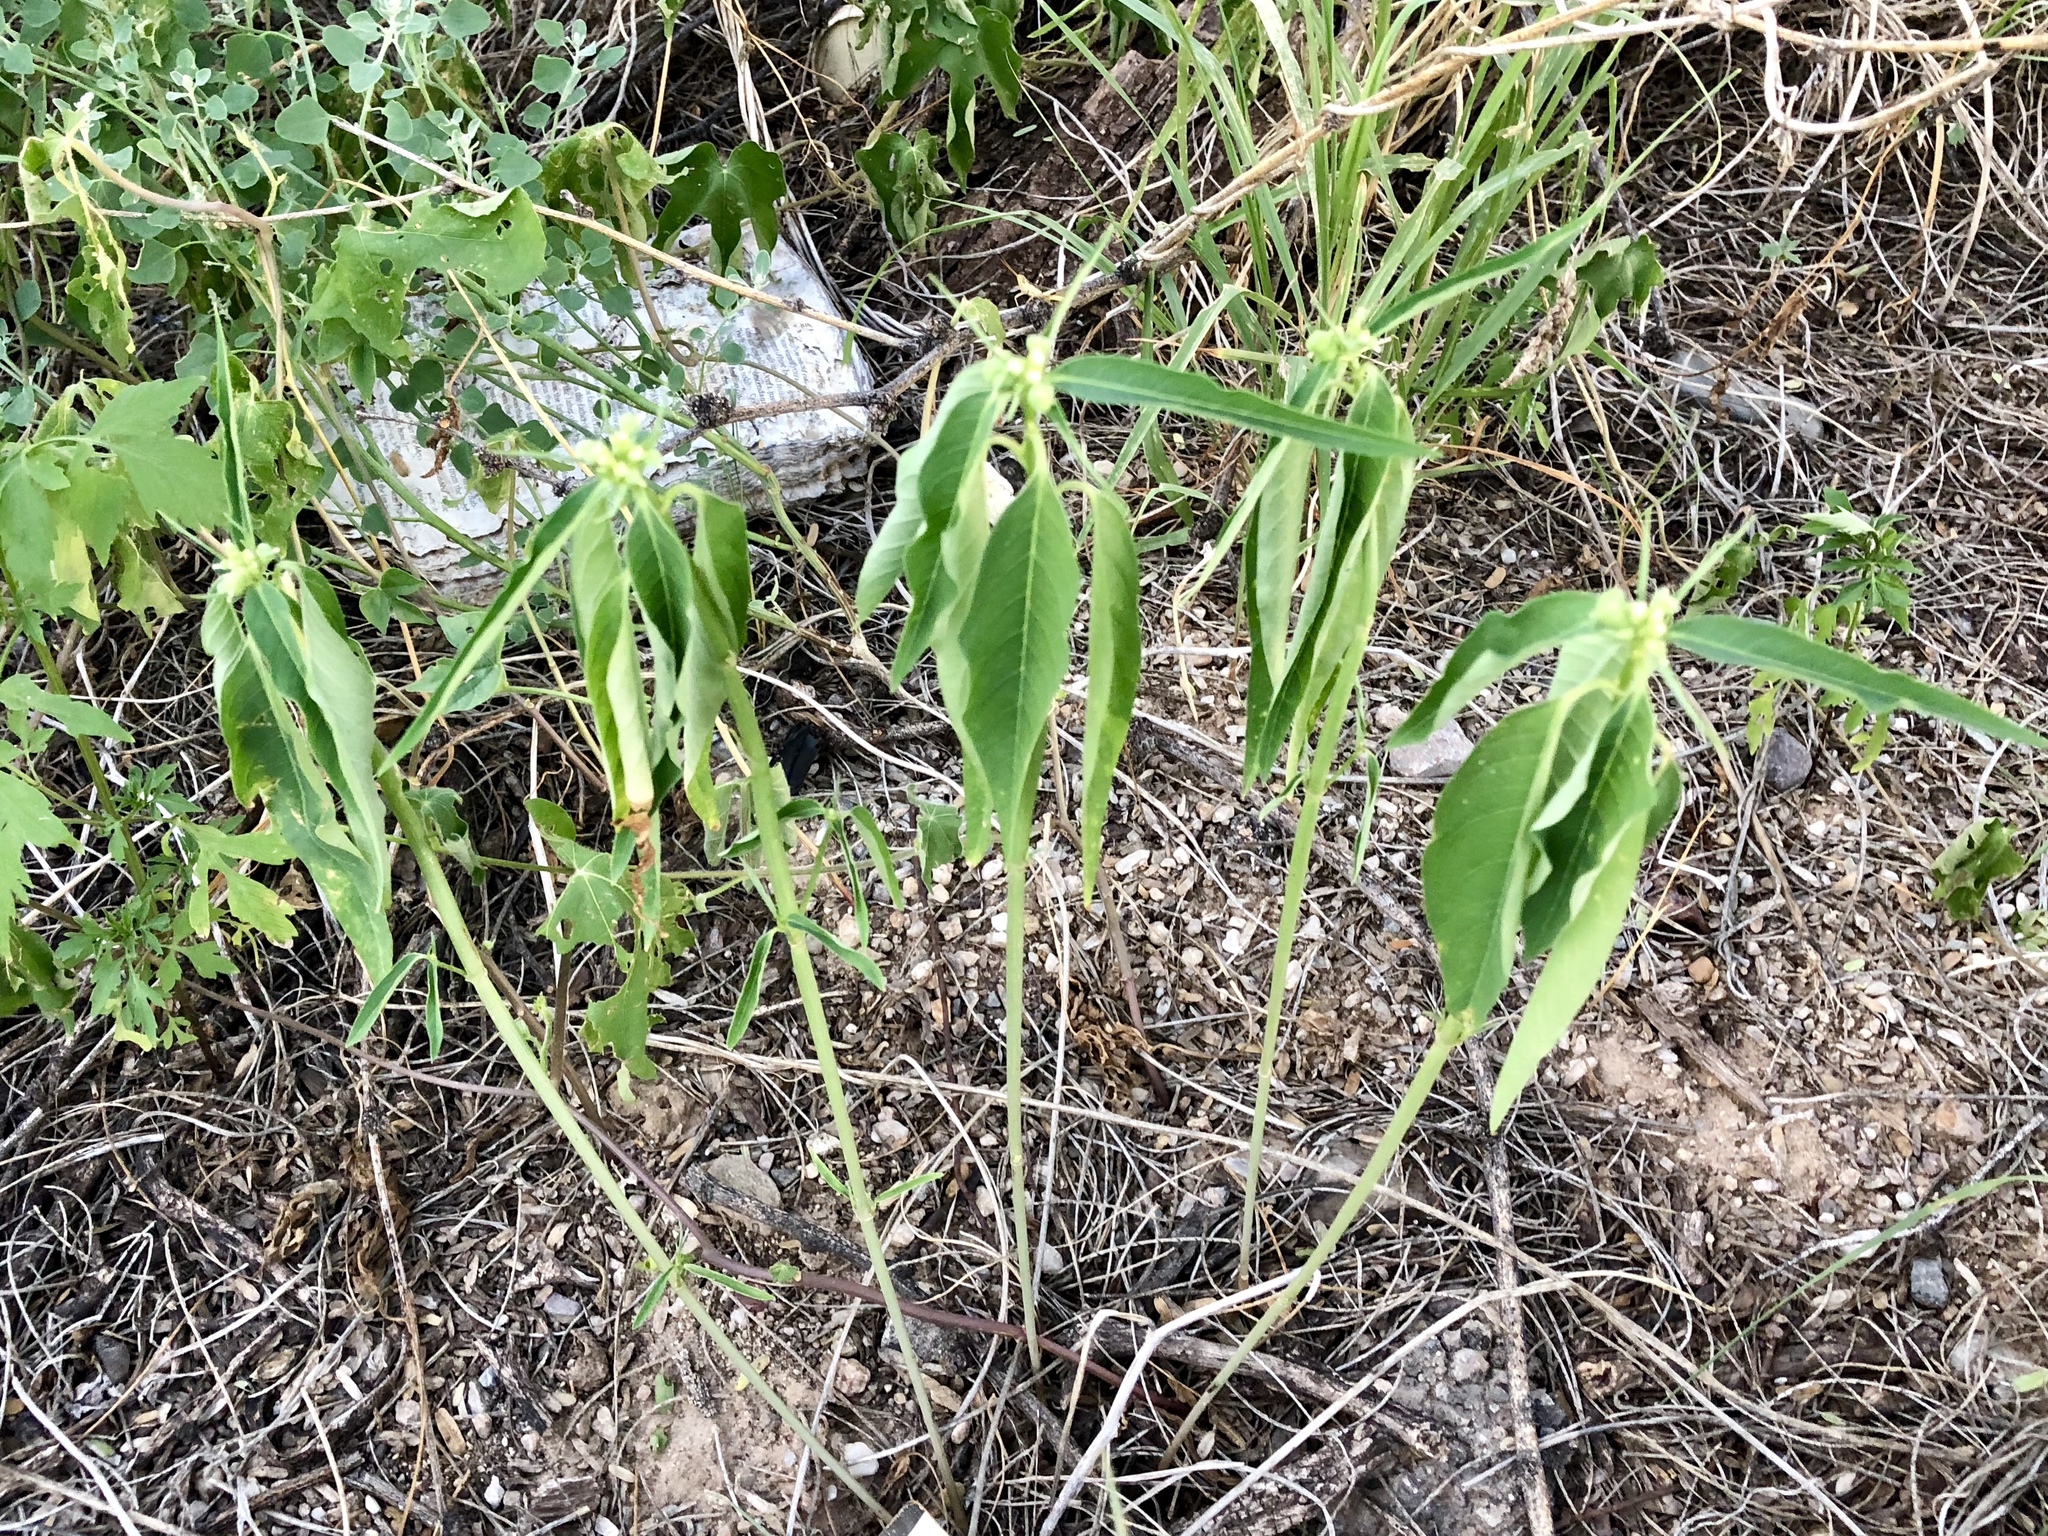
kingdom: Plantae
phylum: Tracheophyta
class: Magnoliopsida
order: Malpighiales
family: Euphorbiaceae
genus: Euphorbia
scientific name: Euphorbia heterophylla
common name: Mexican fireplant
